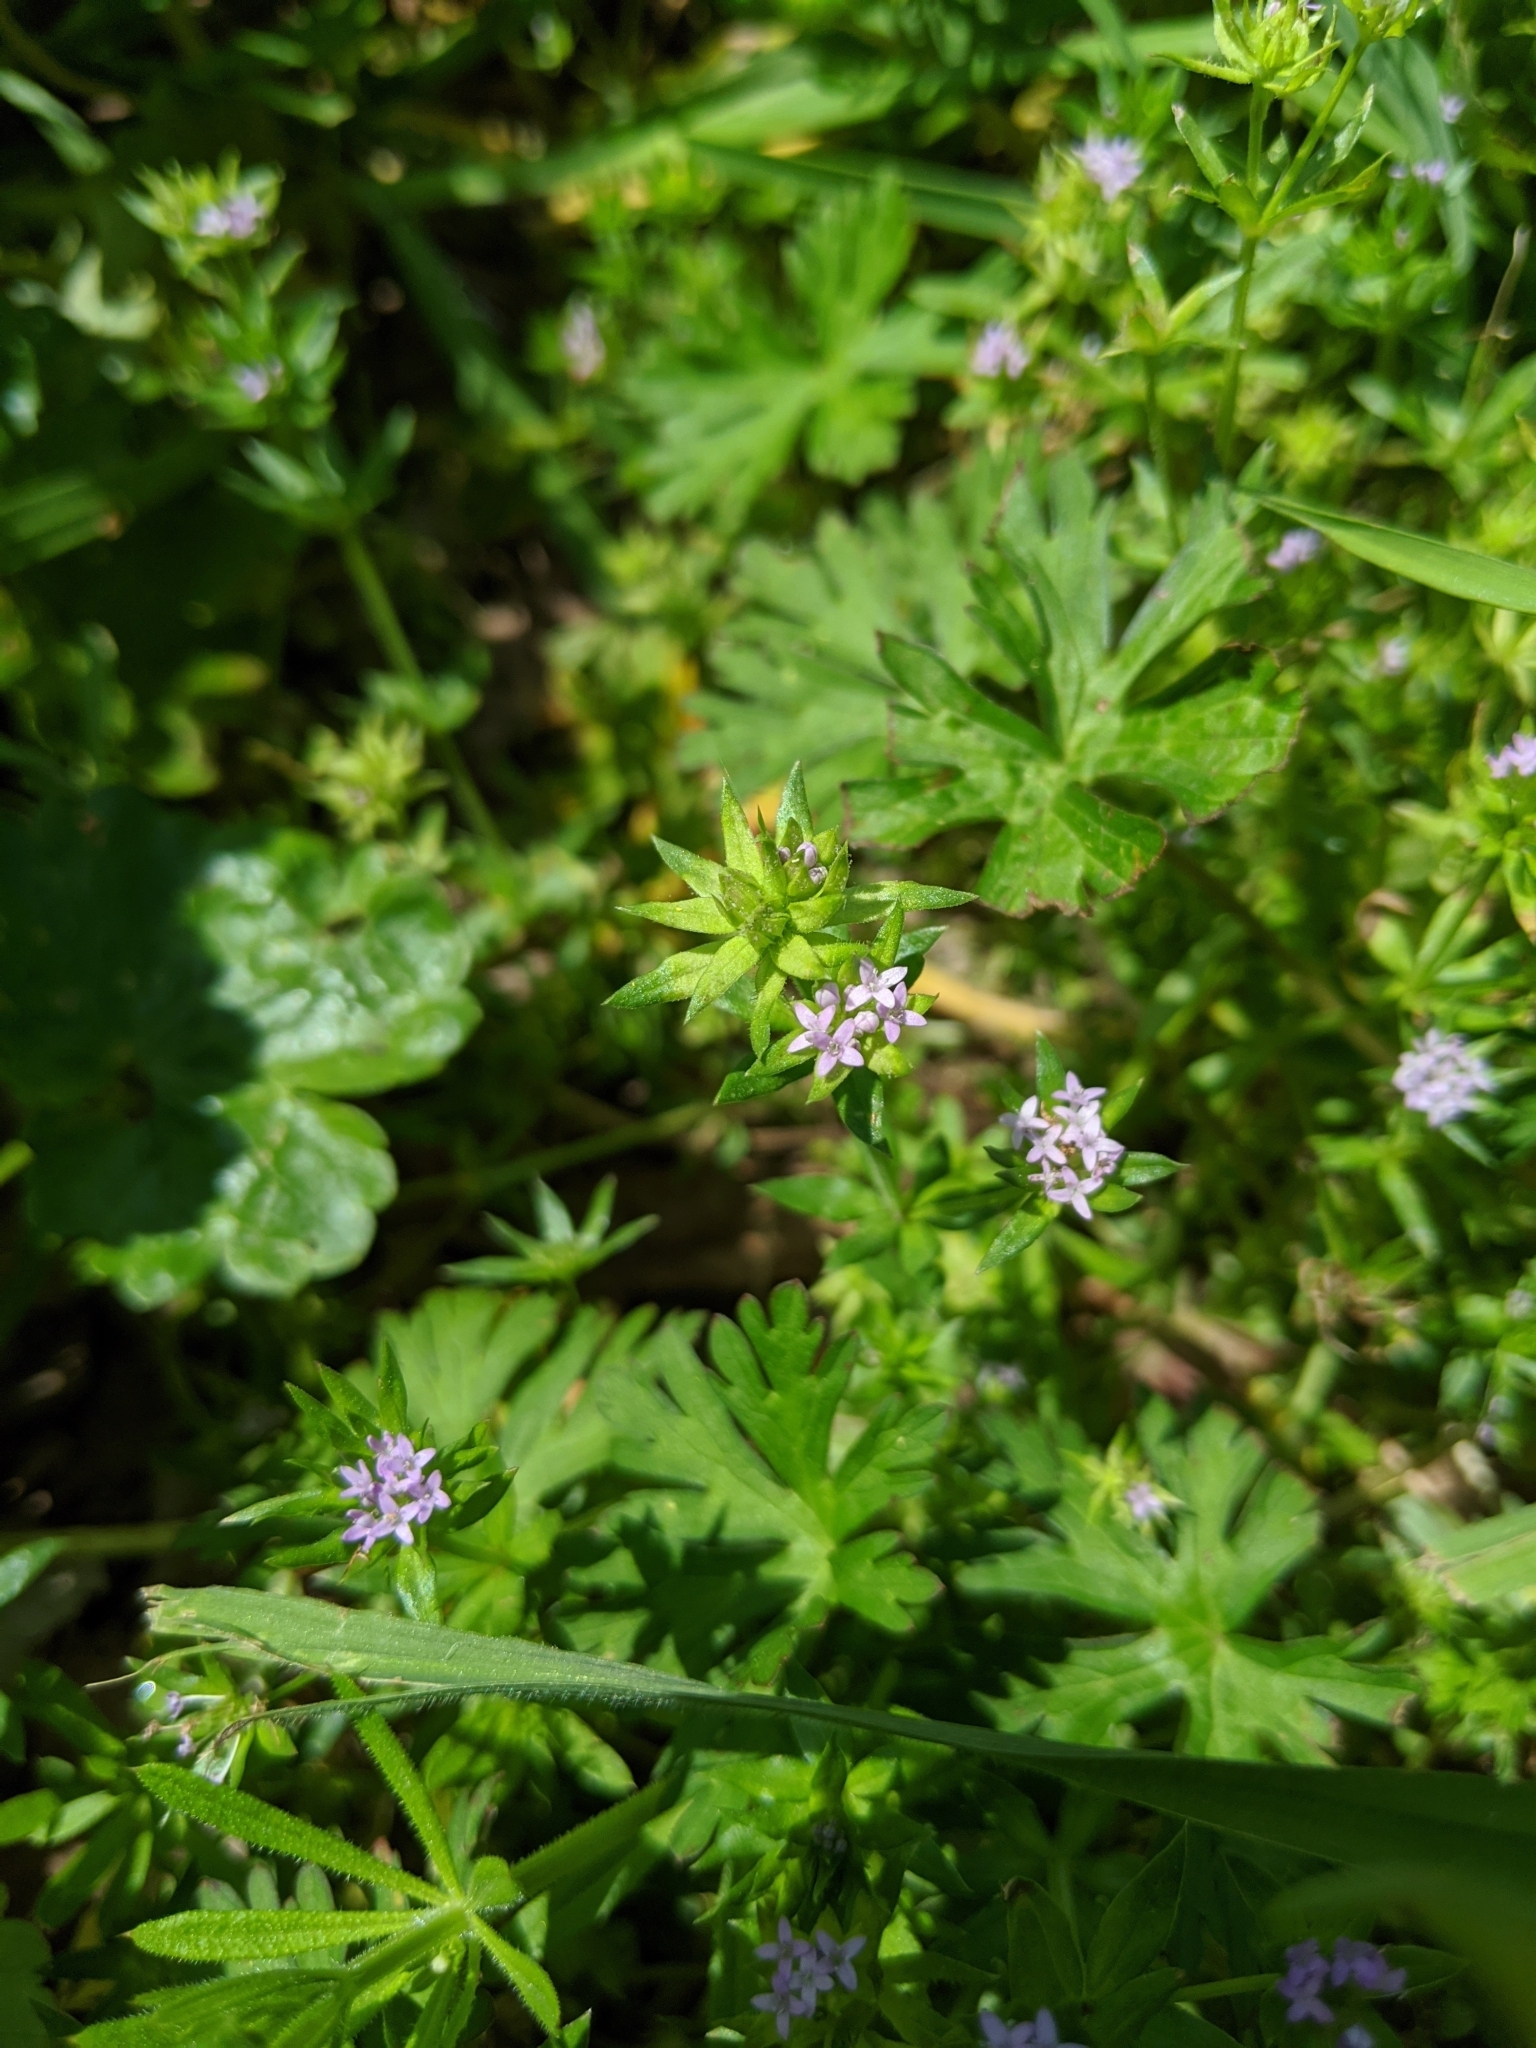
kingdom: Plantae
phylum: Tracheophyta
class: Magnoliopsida
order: Gentianales
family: Rubiaceae
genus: Sherardia
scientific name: Sherardia arvensis
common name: Field madder
